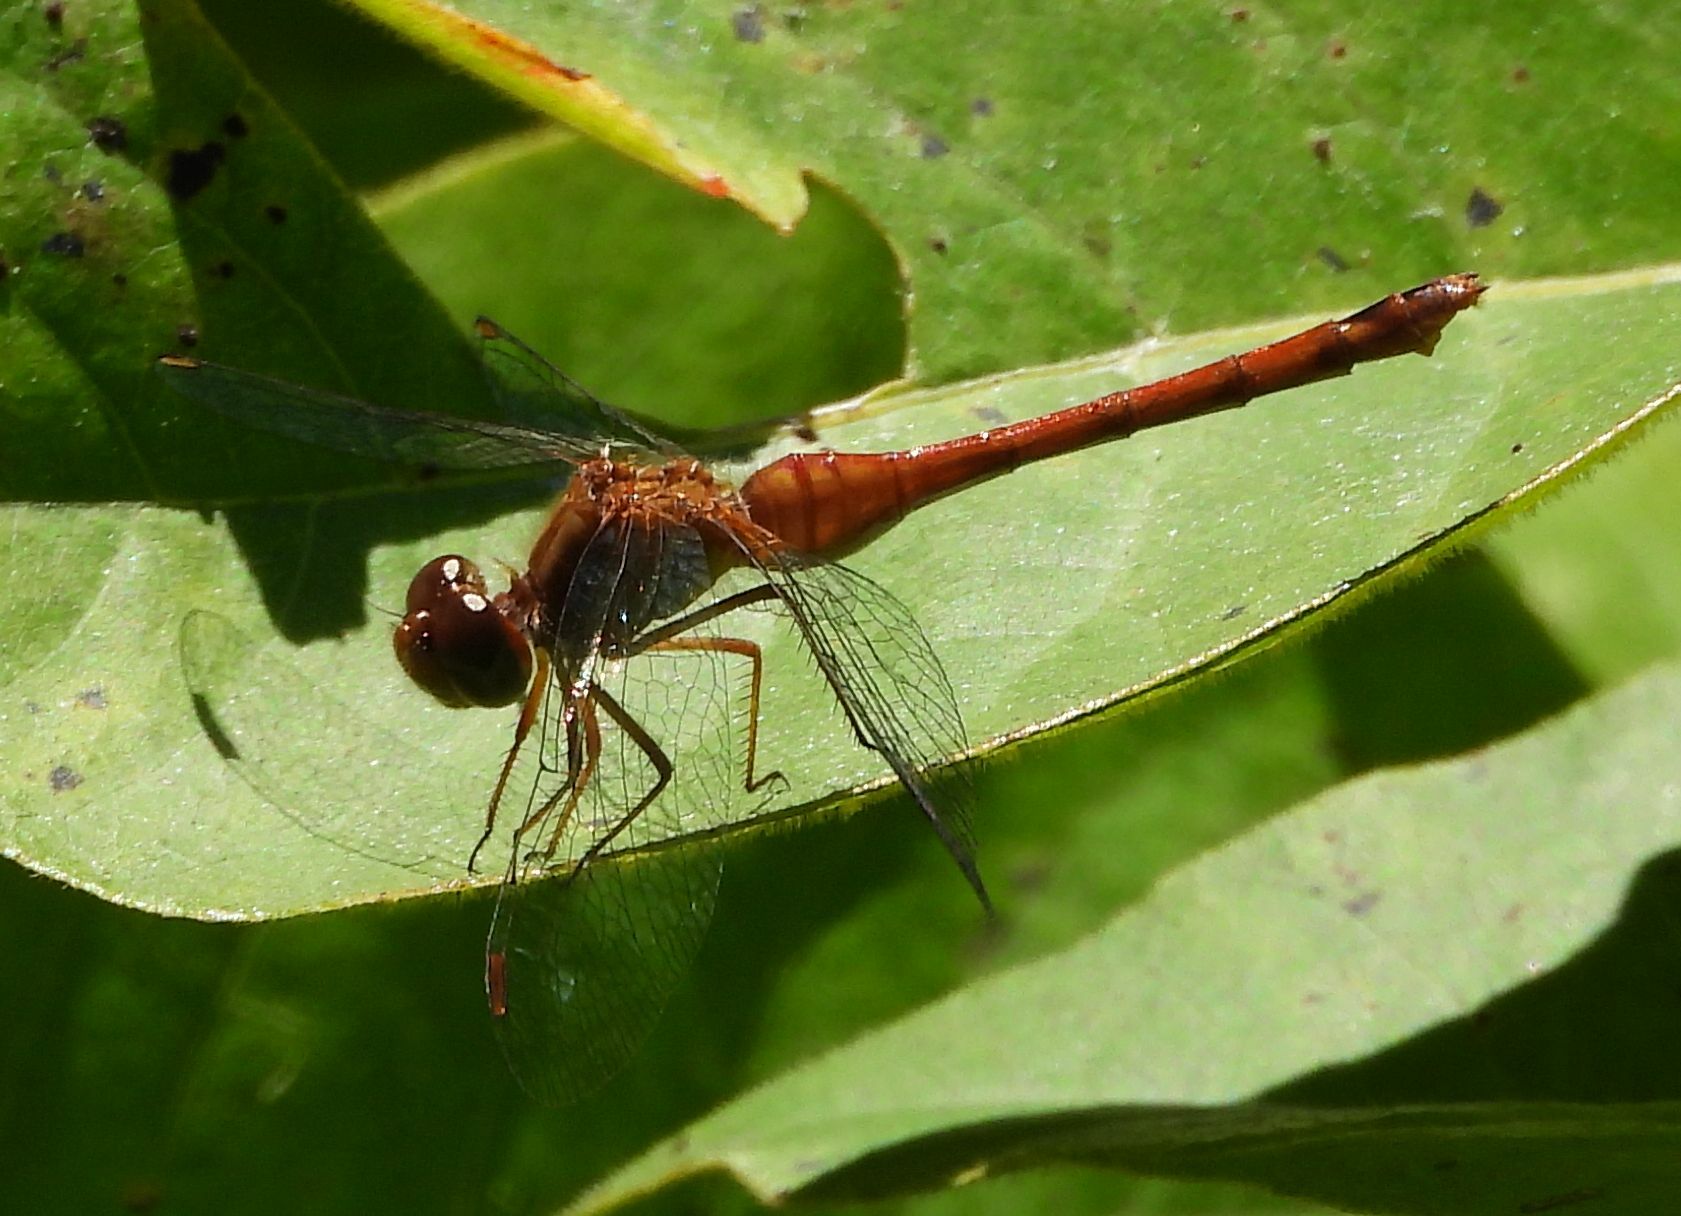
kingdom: Animalia
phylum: Arthropoda
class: Insecta
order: Odonata
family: Libellulidae
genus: Sympetrum
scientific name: Sympetrum vicinum
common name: Autumn meadowhawk
